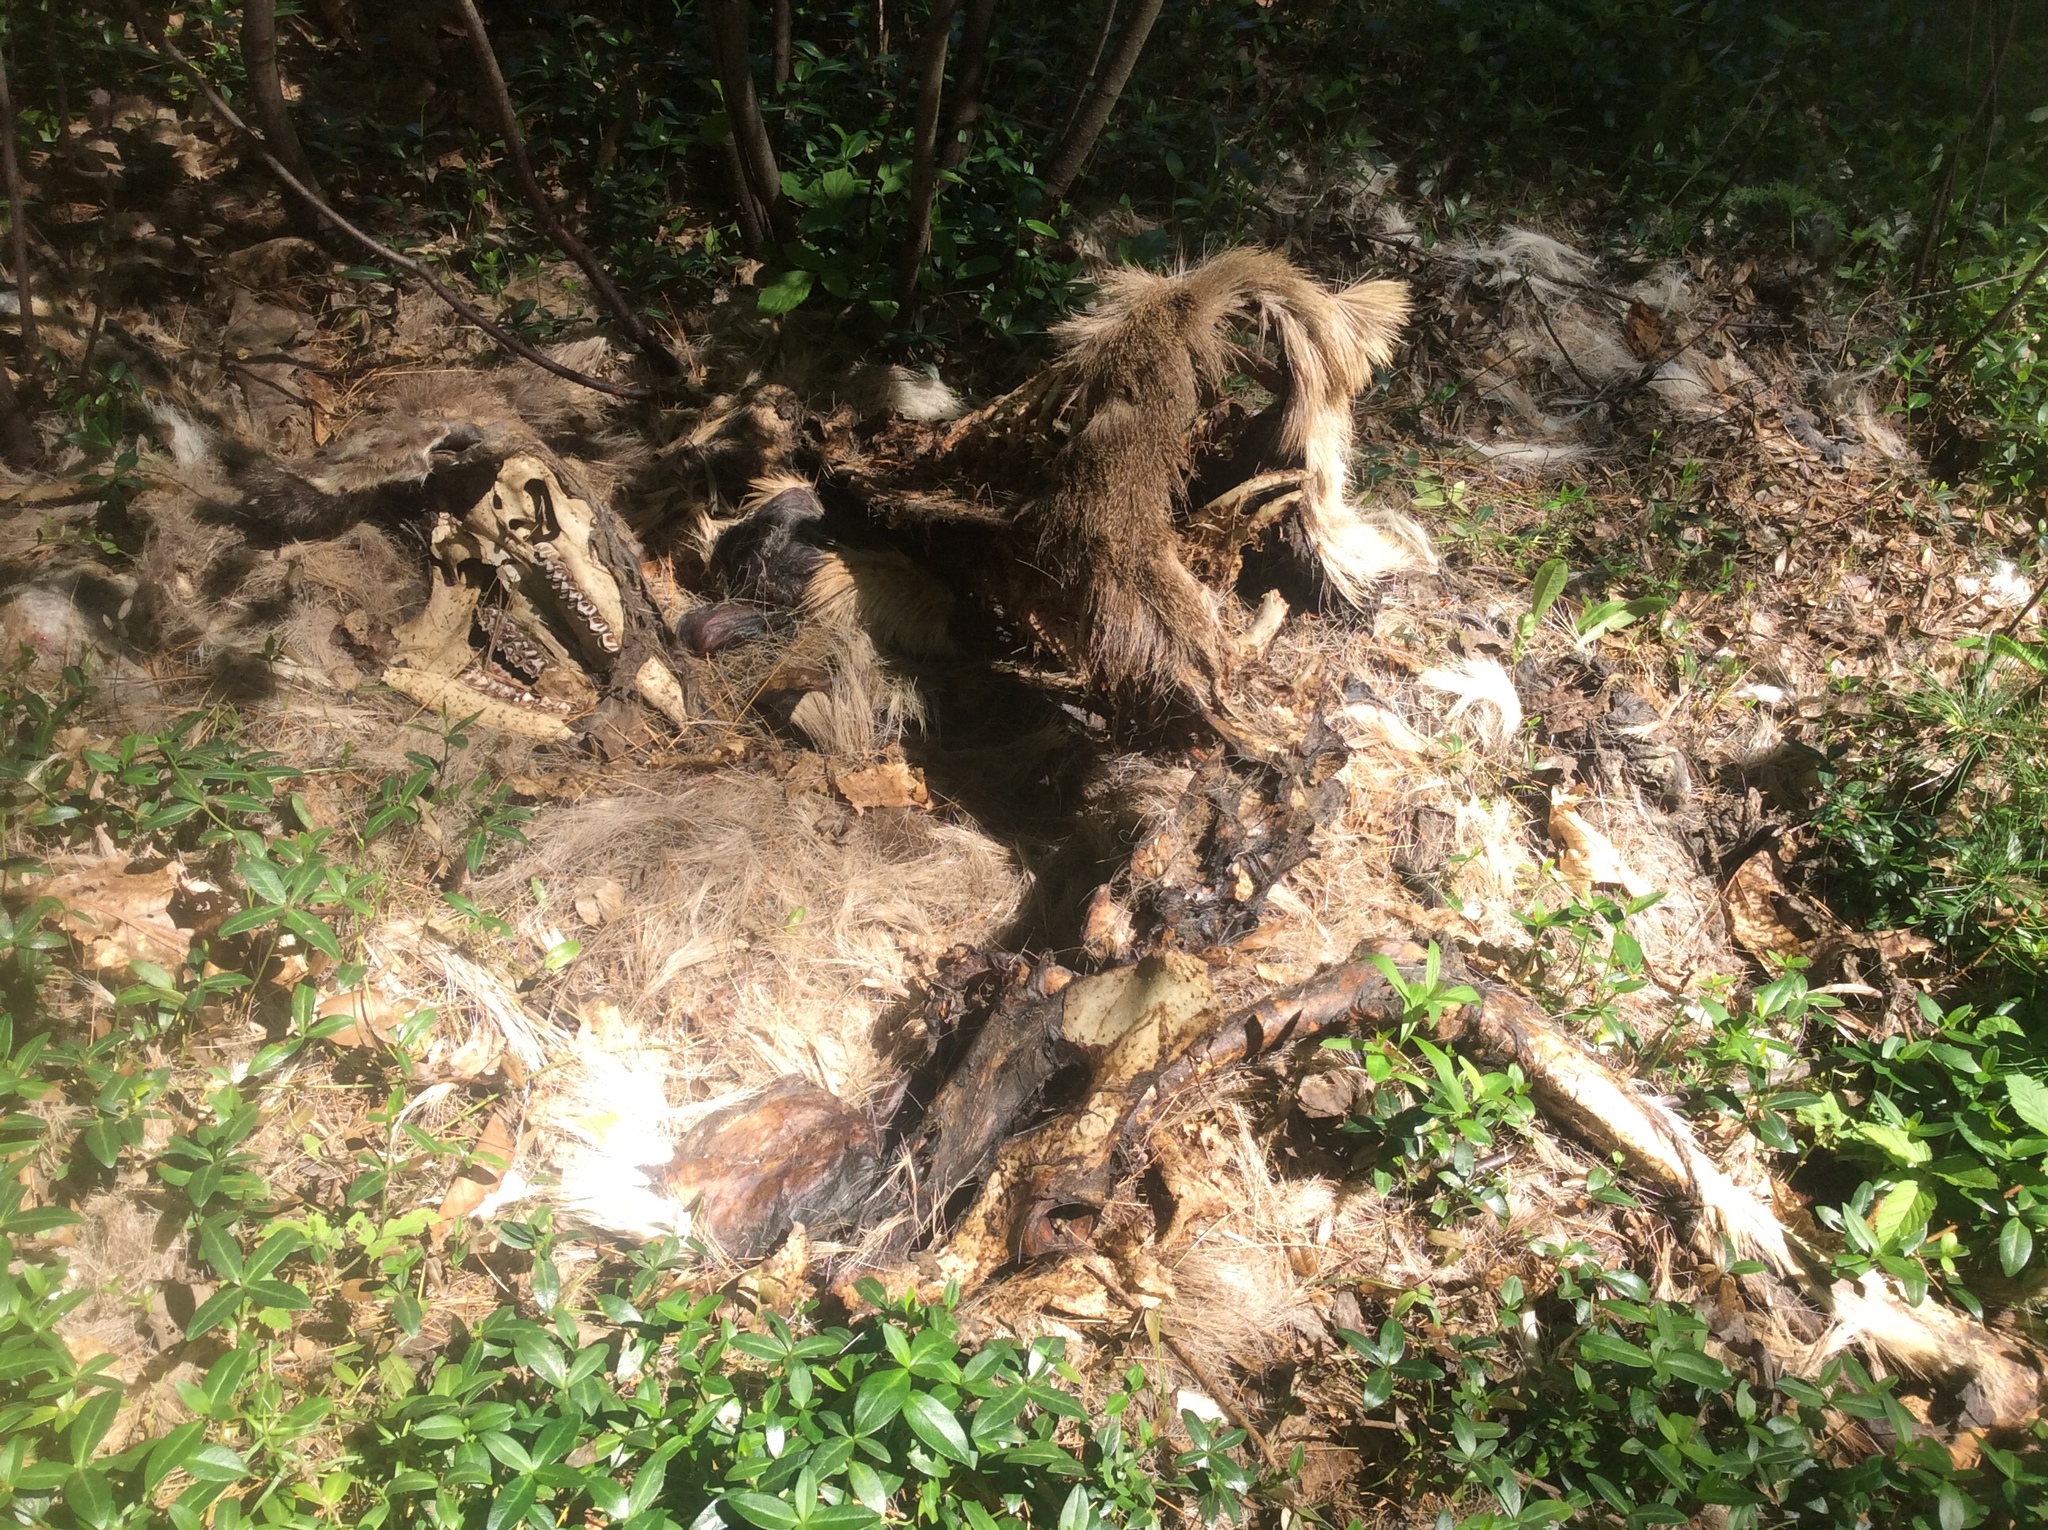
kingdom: Animalia
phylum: Chordata
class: Mammalia
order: Artiodactyla
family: Cervidae
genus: Odocoileus
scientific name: Odocoileus virginianus
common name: White-tailed deer
